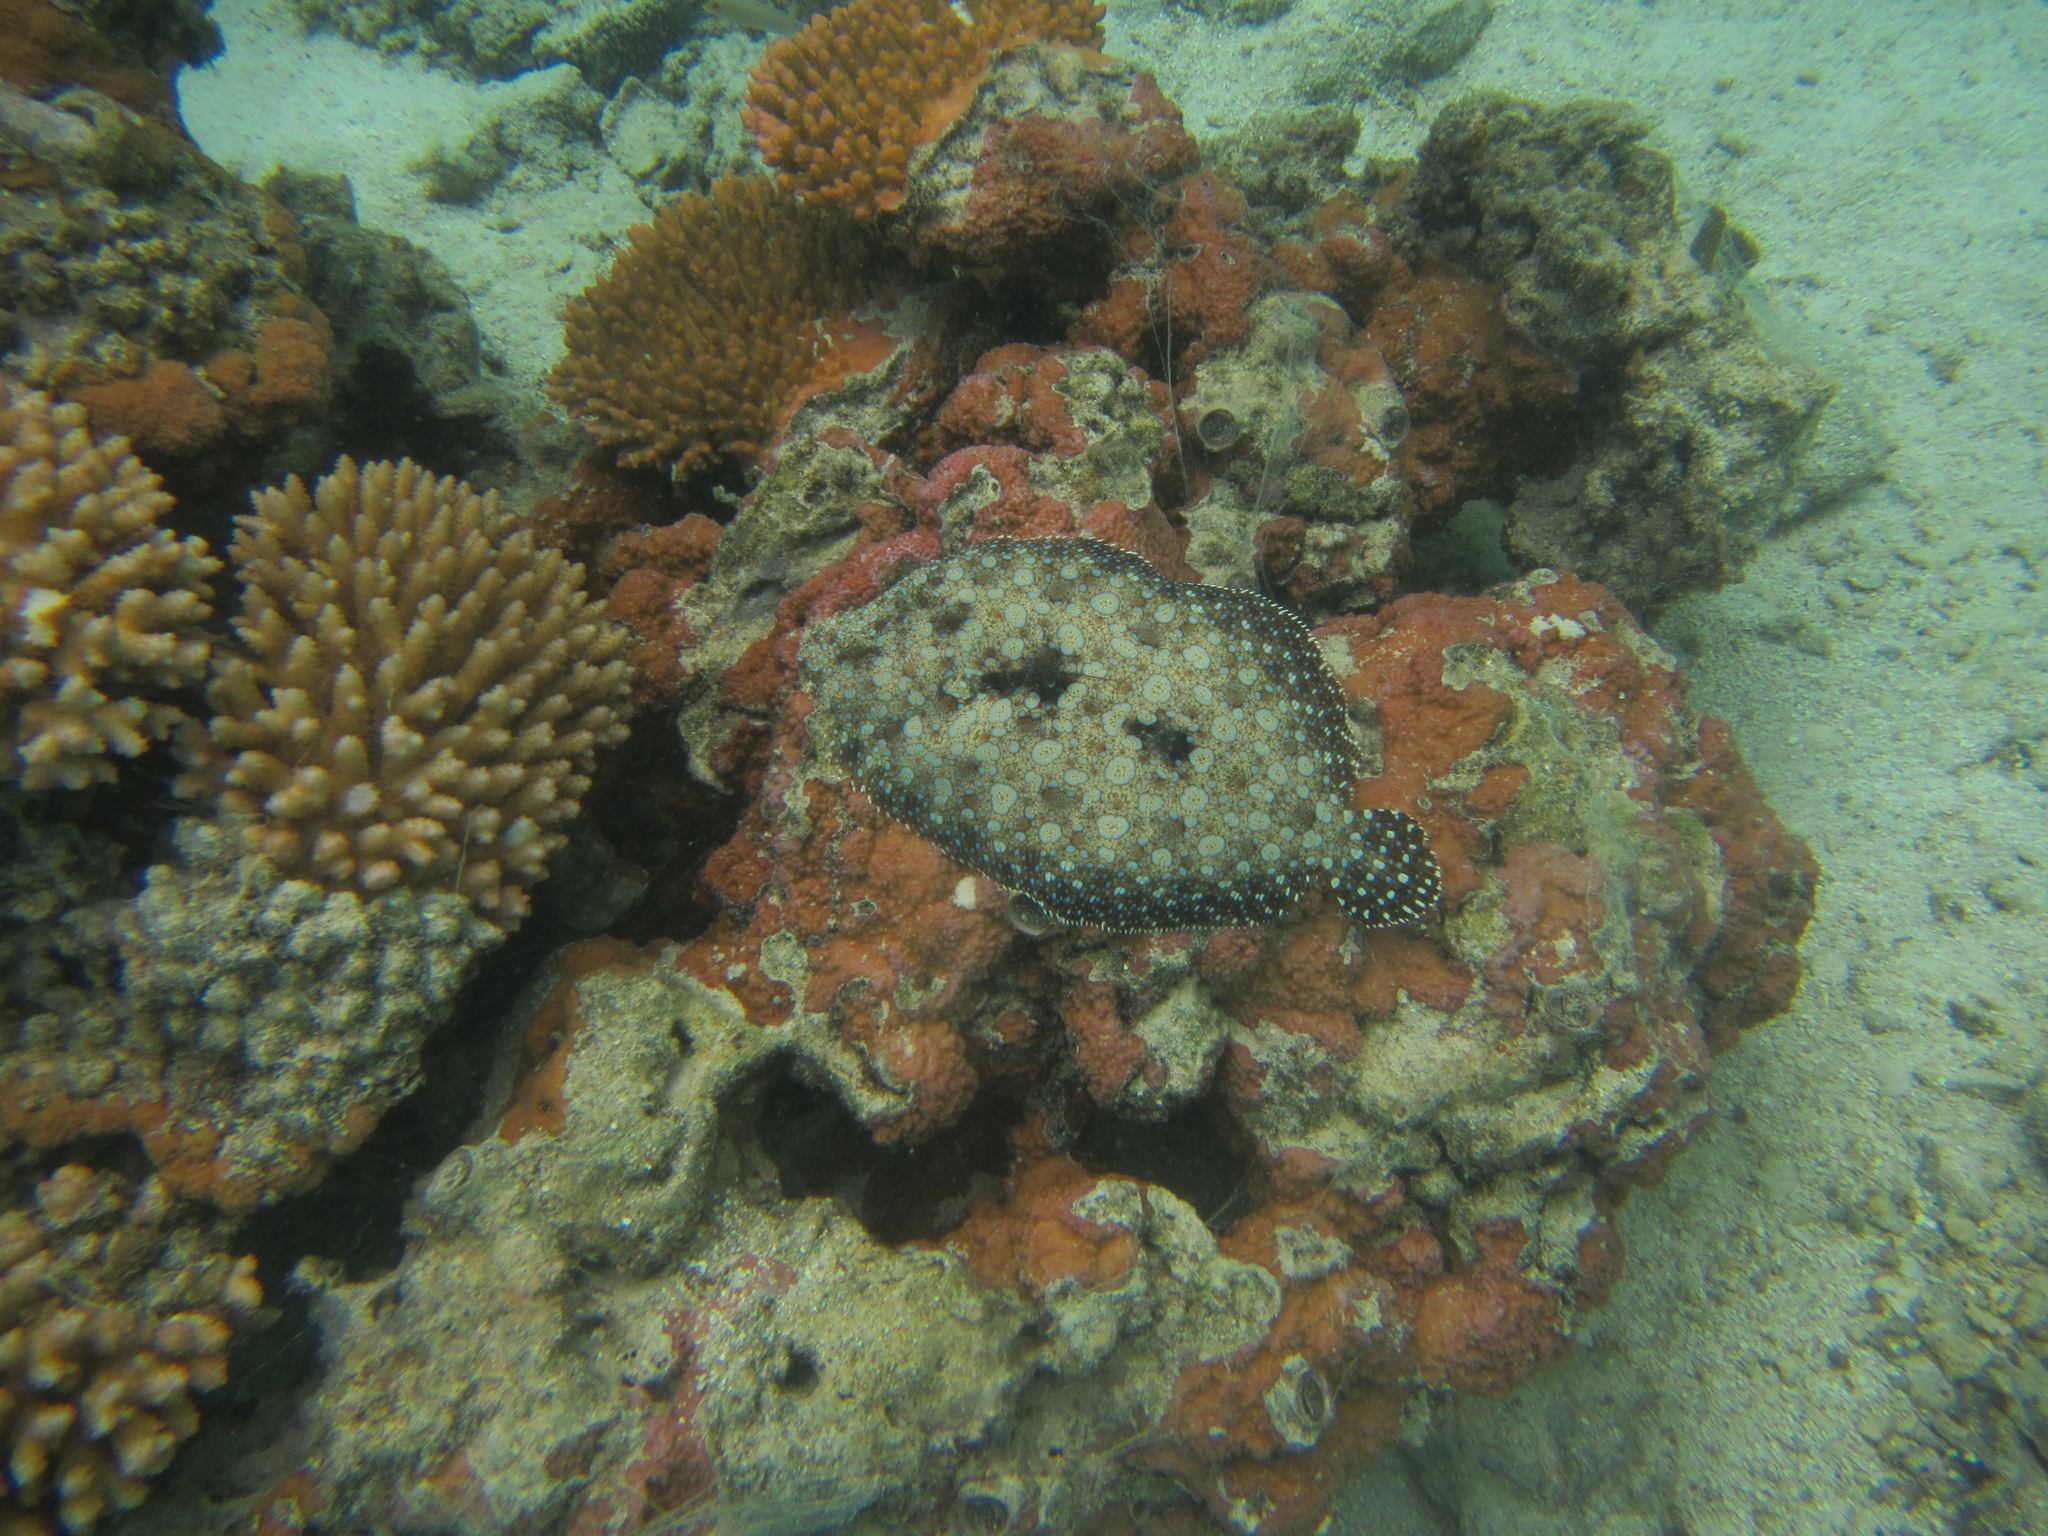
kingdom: Animalia
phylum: Chordata
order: Pleuronectiformes
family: Bothidae
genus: Bothus
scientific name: Bothus mancus
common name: Flowery flounder
